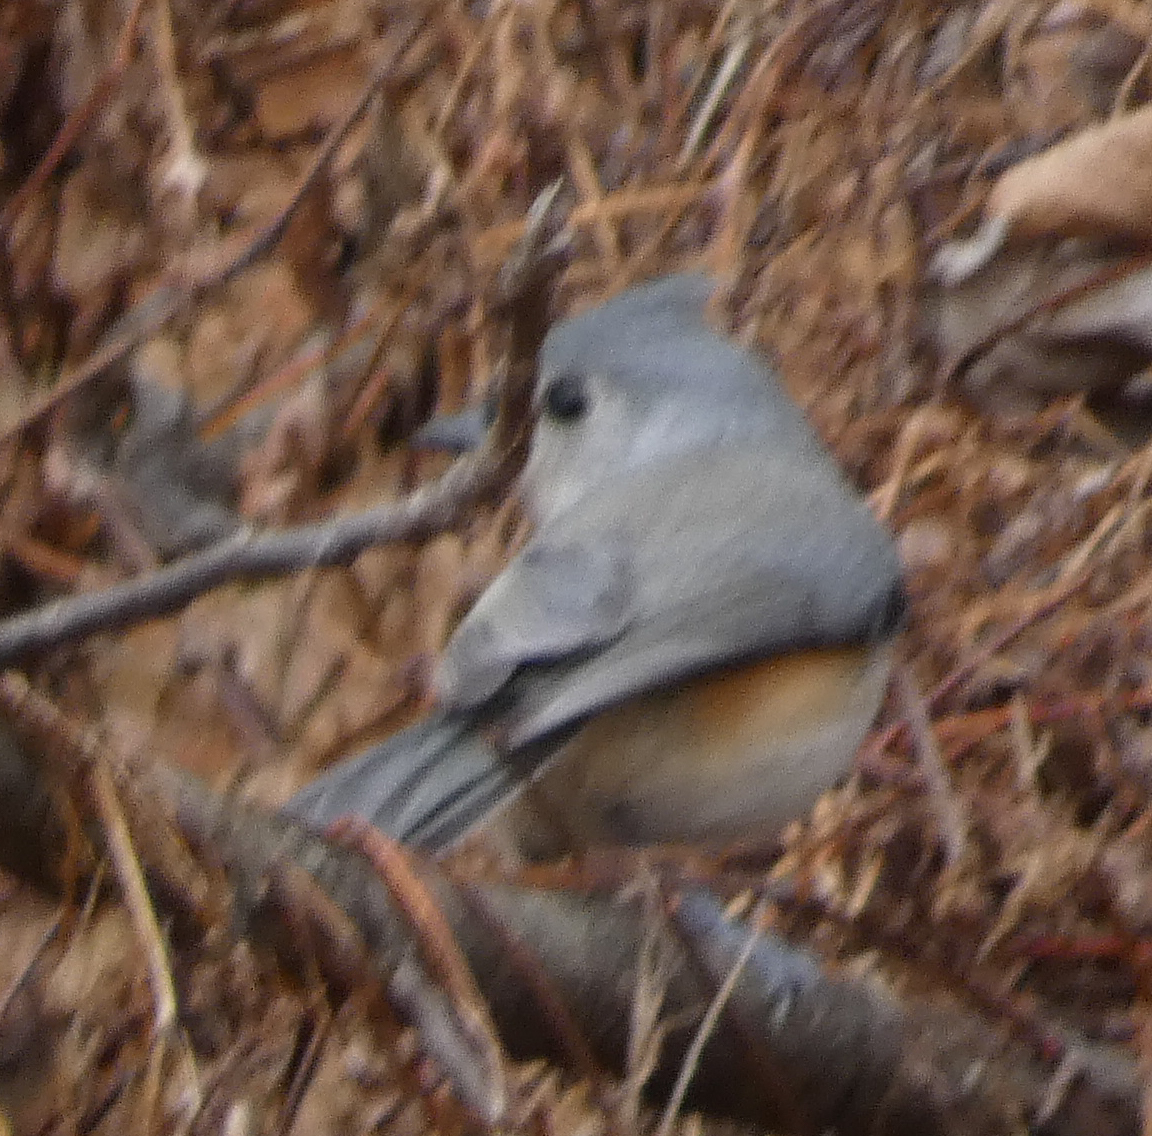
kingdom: Animalia
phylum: Chordata
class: Aves
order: Passeriformes
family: Paridae
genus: Baeolophus
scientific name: Baeolophus bicolor
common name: Tufted titmouse
